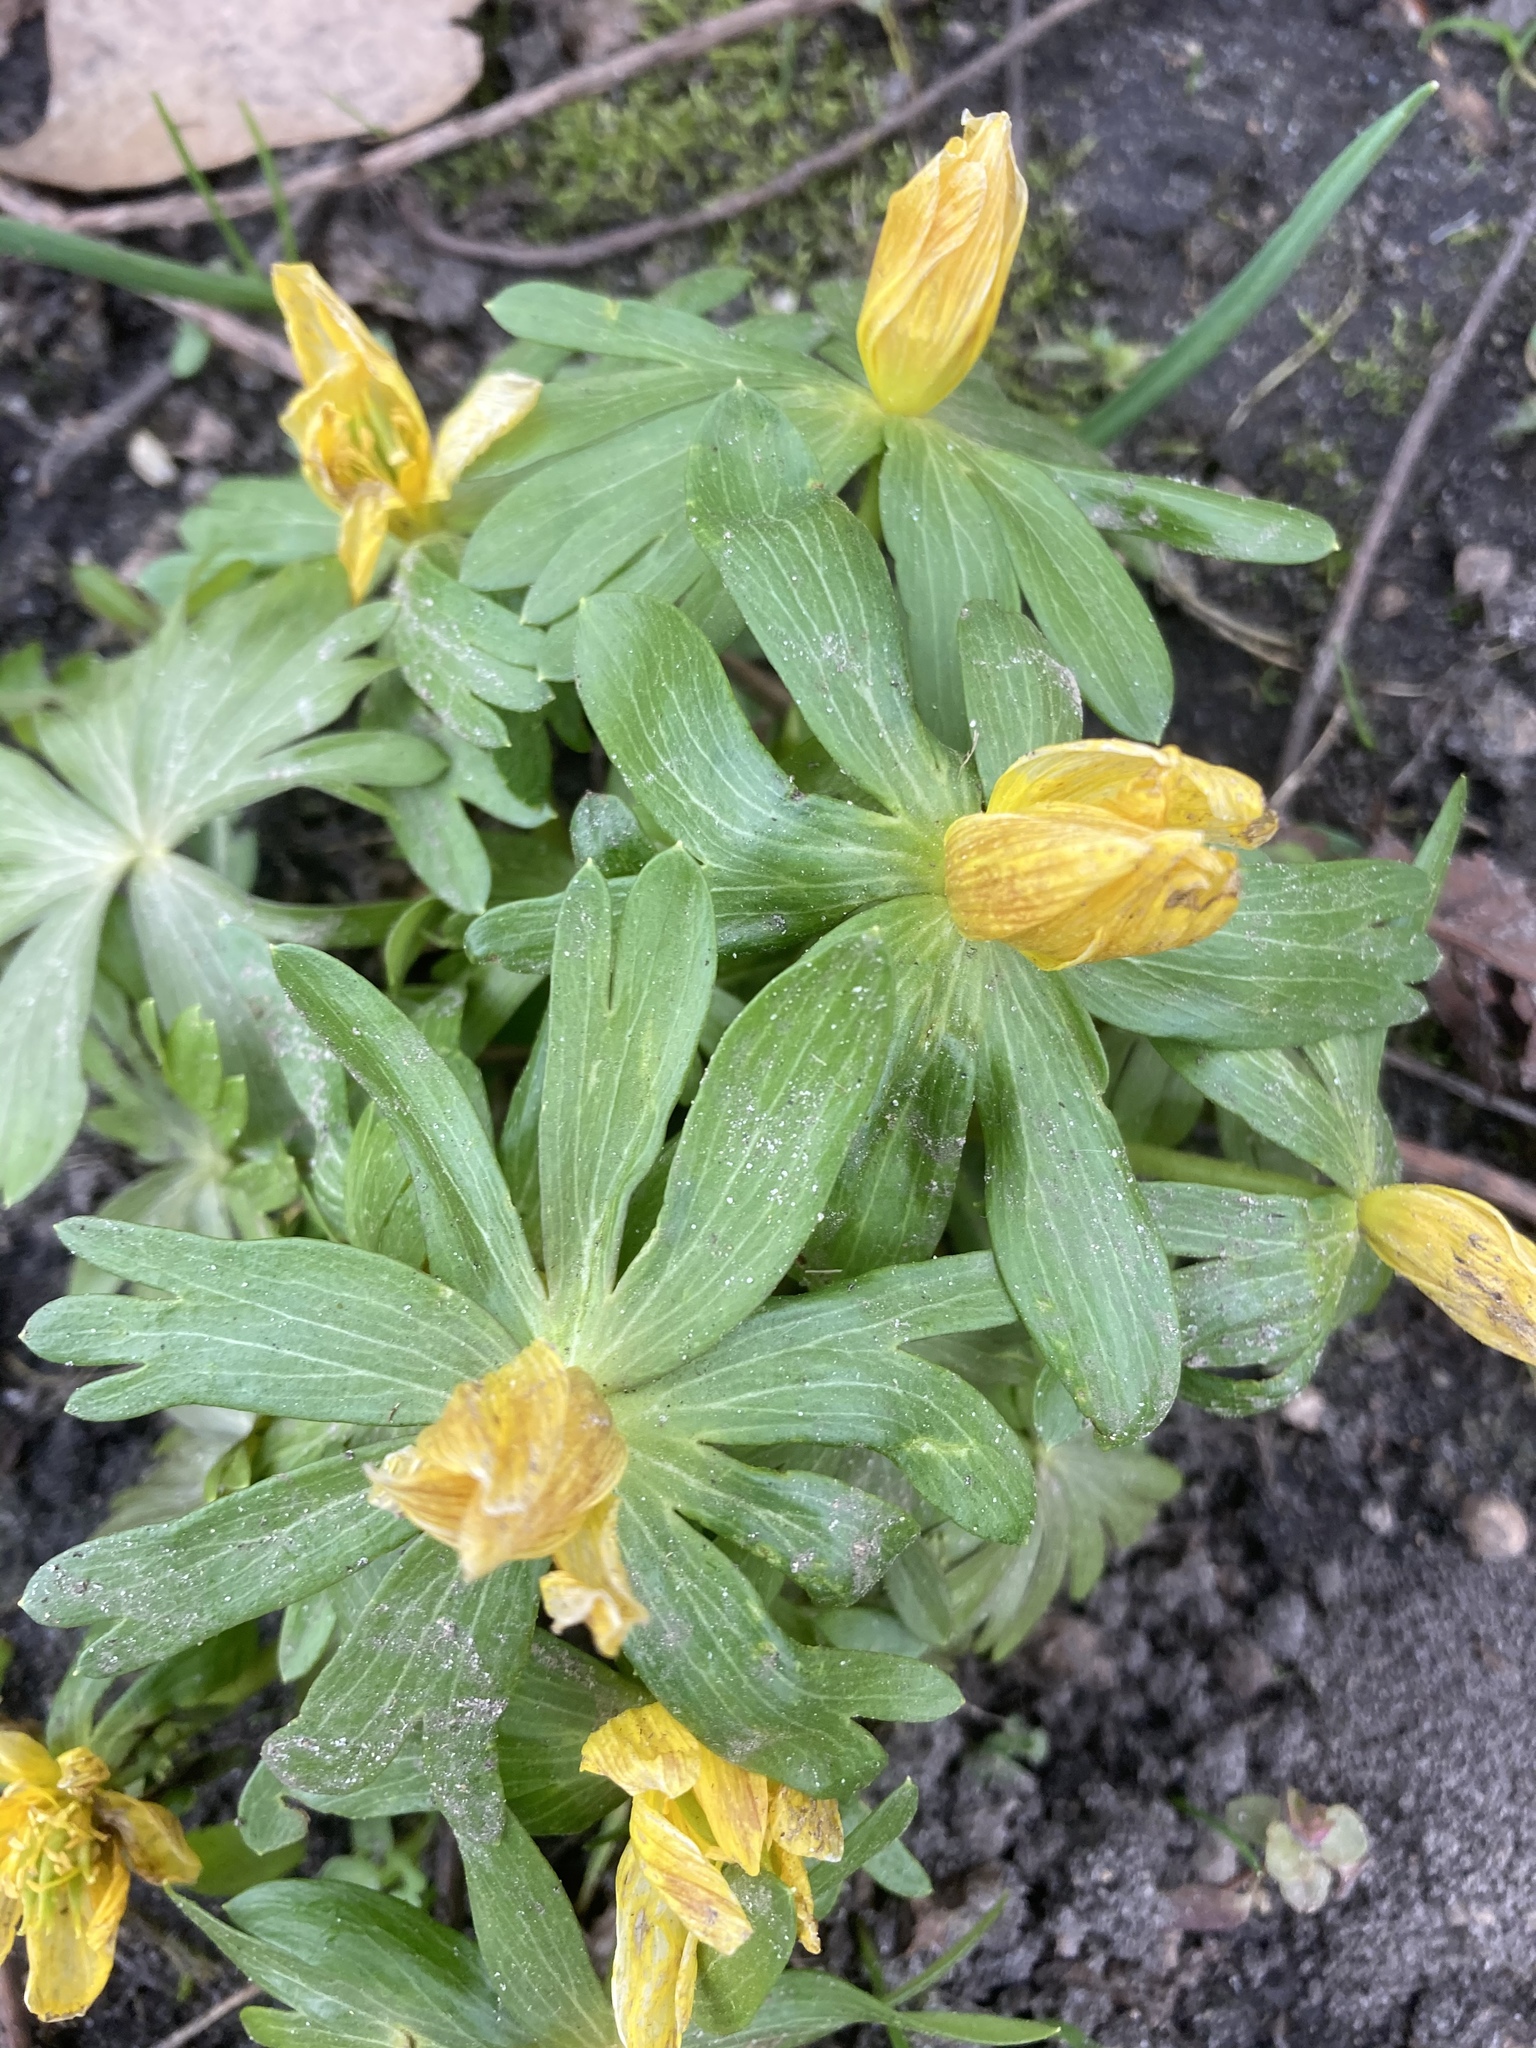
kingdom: Plantae
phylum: Tracheophyta
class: Magnoliopsida
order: Ranunculales
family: Ranunculaceae
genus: Eranthis
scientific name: Eranthis hyemalis
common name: Winter aconite
